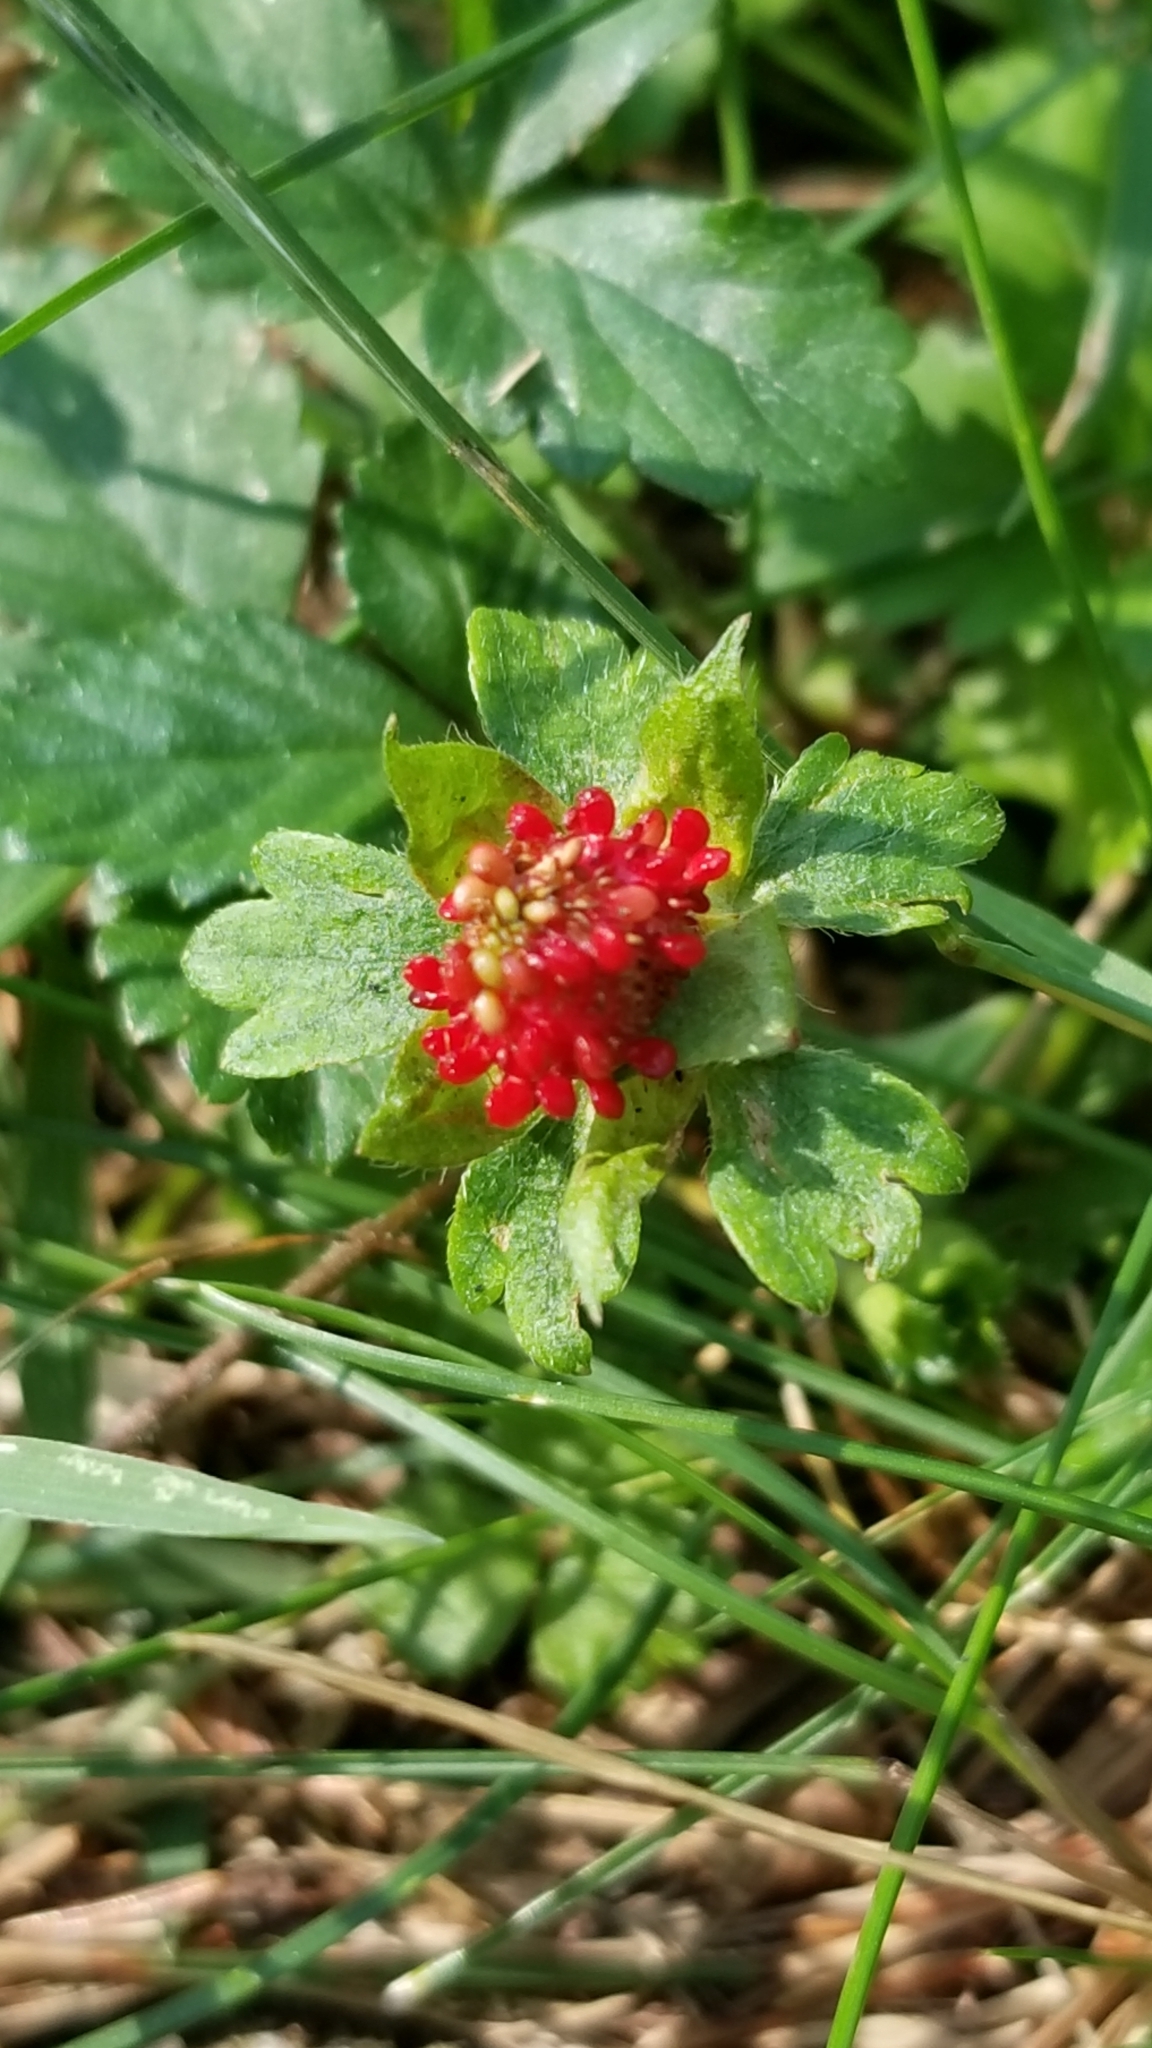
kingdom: Plantae
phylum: Tracheophyta
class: Magnoliopsida
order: Rosales
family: Rosaceae
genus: Potentilla
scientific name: Potentilla indica
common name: Yellow-flowered strawberry
